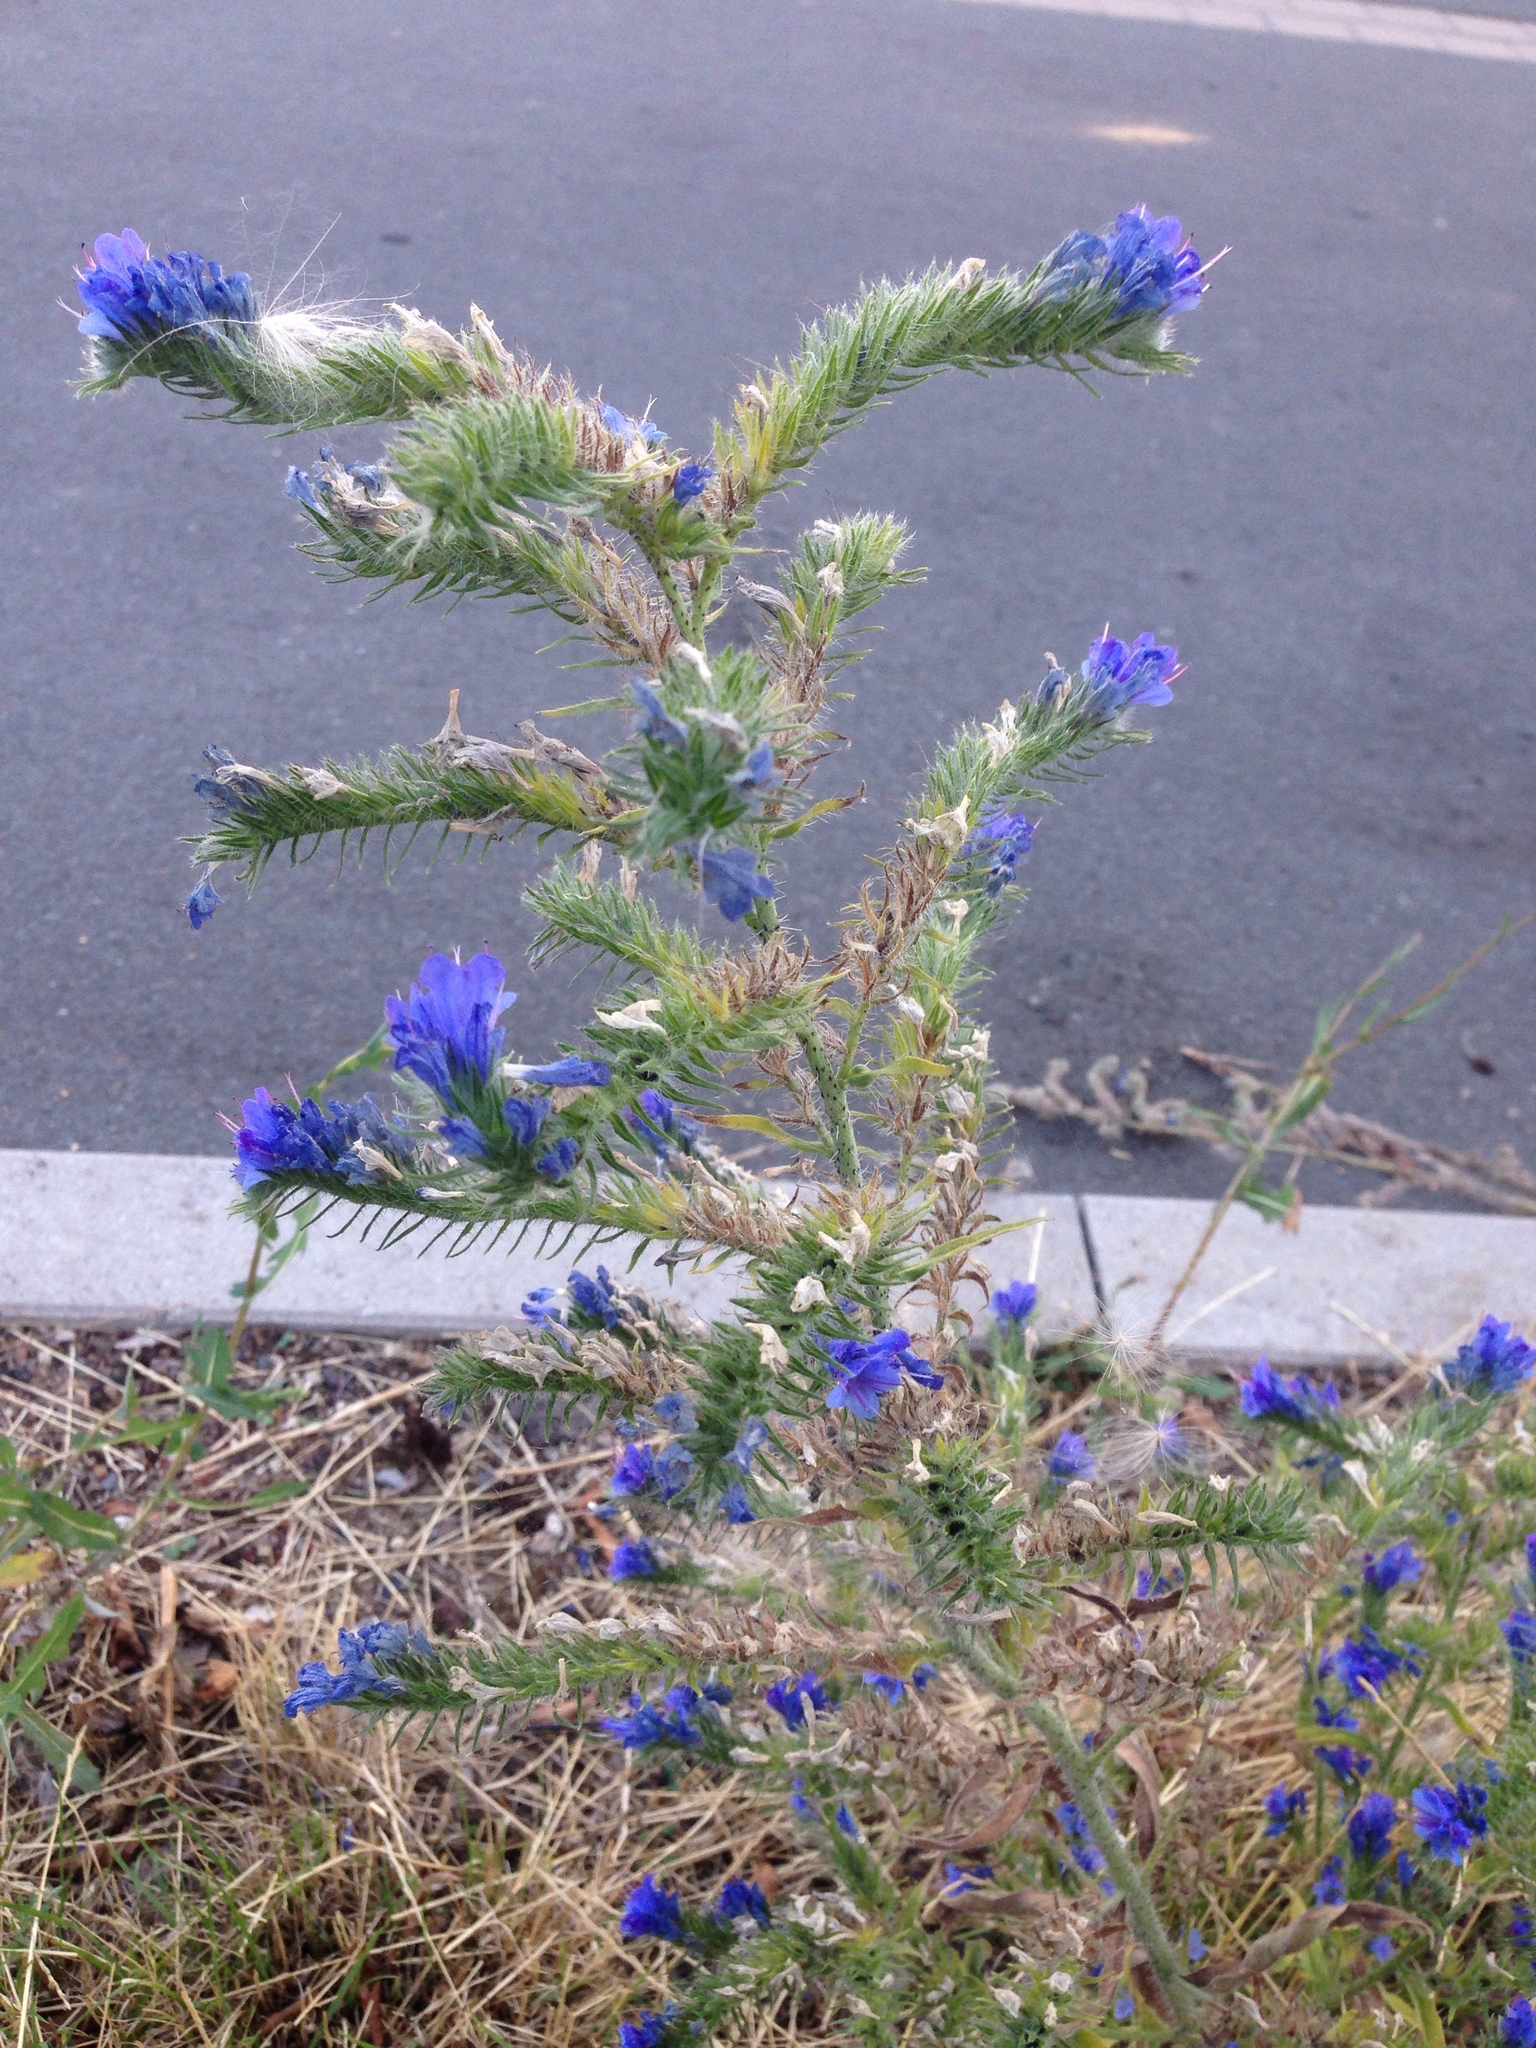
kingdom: Plantae
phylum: Tracheophyta
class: Magnoliopsida
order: Boraginales
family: Boraginaceae
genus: Echium
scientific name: Echium vulgare
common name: Common viper's bugloss
